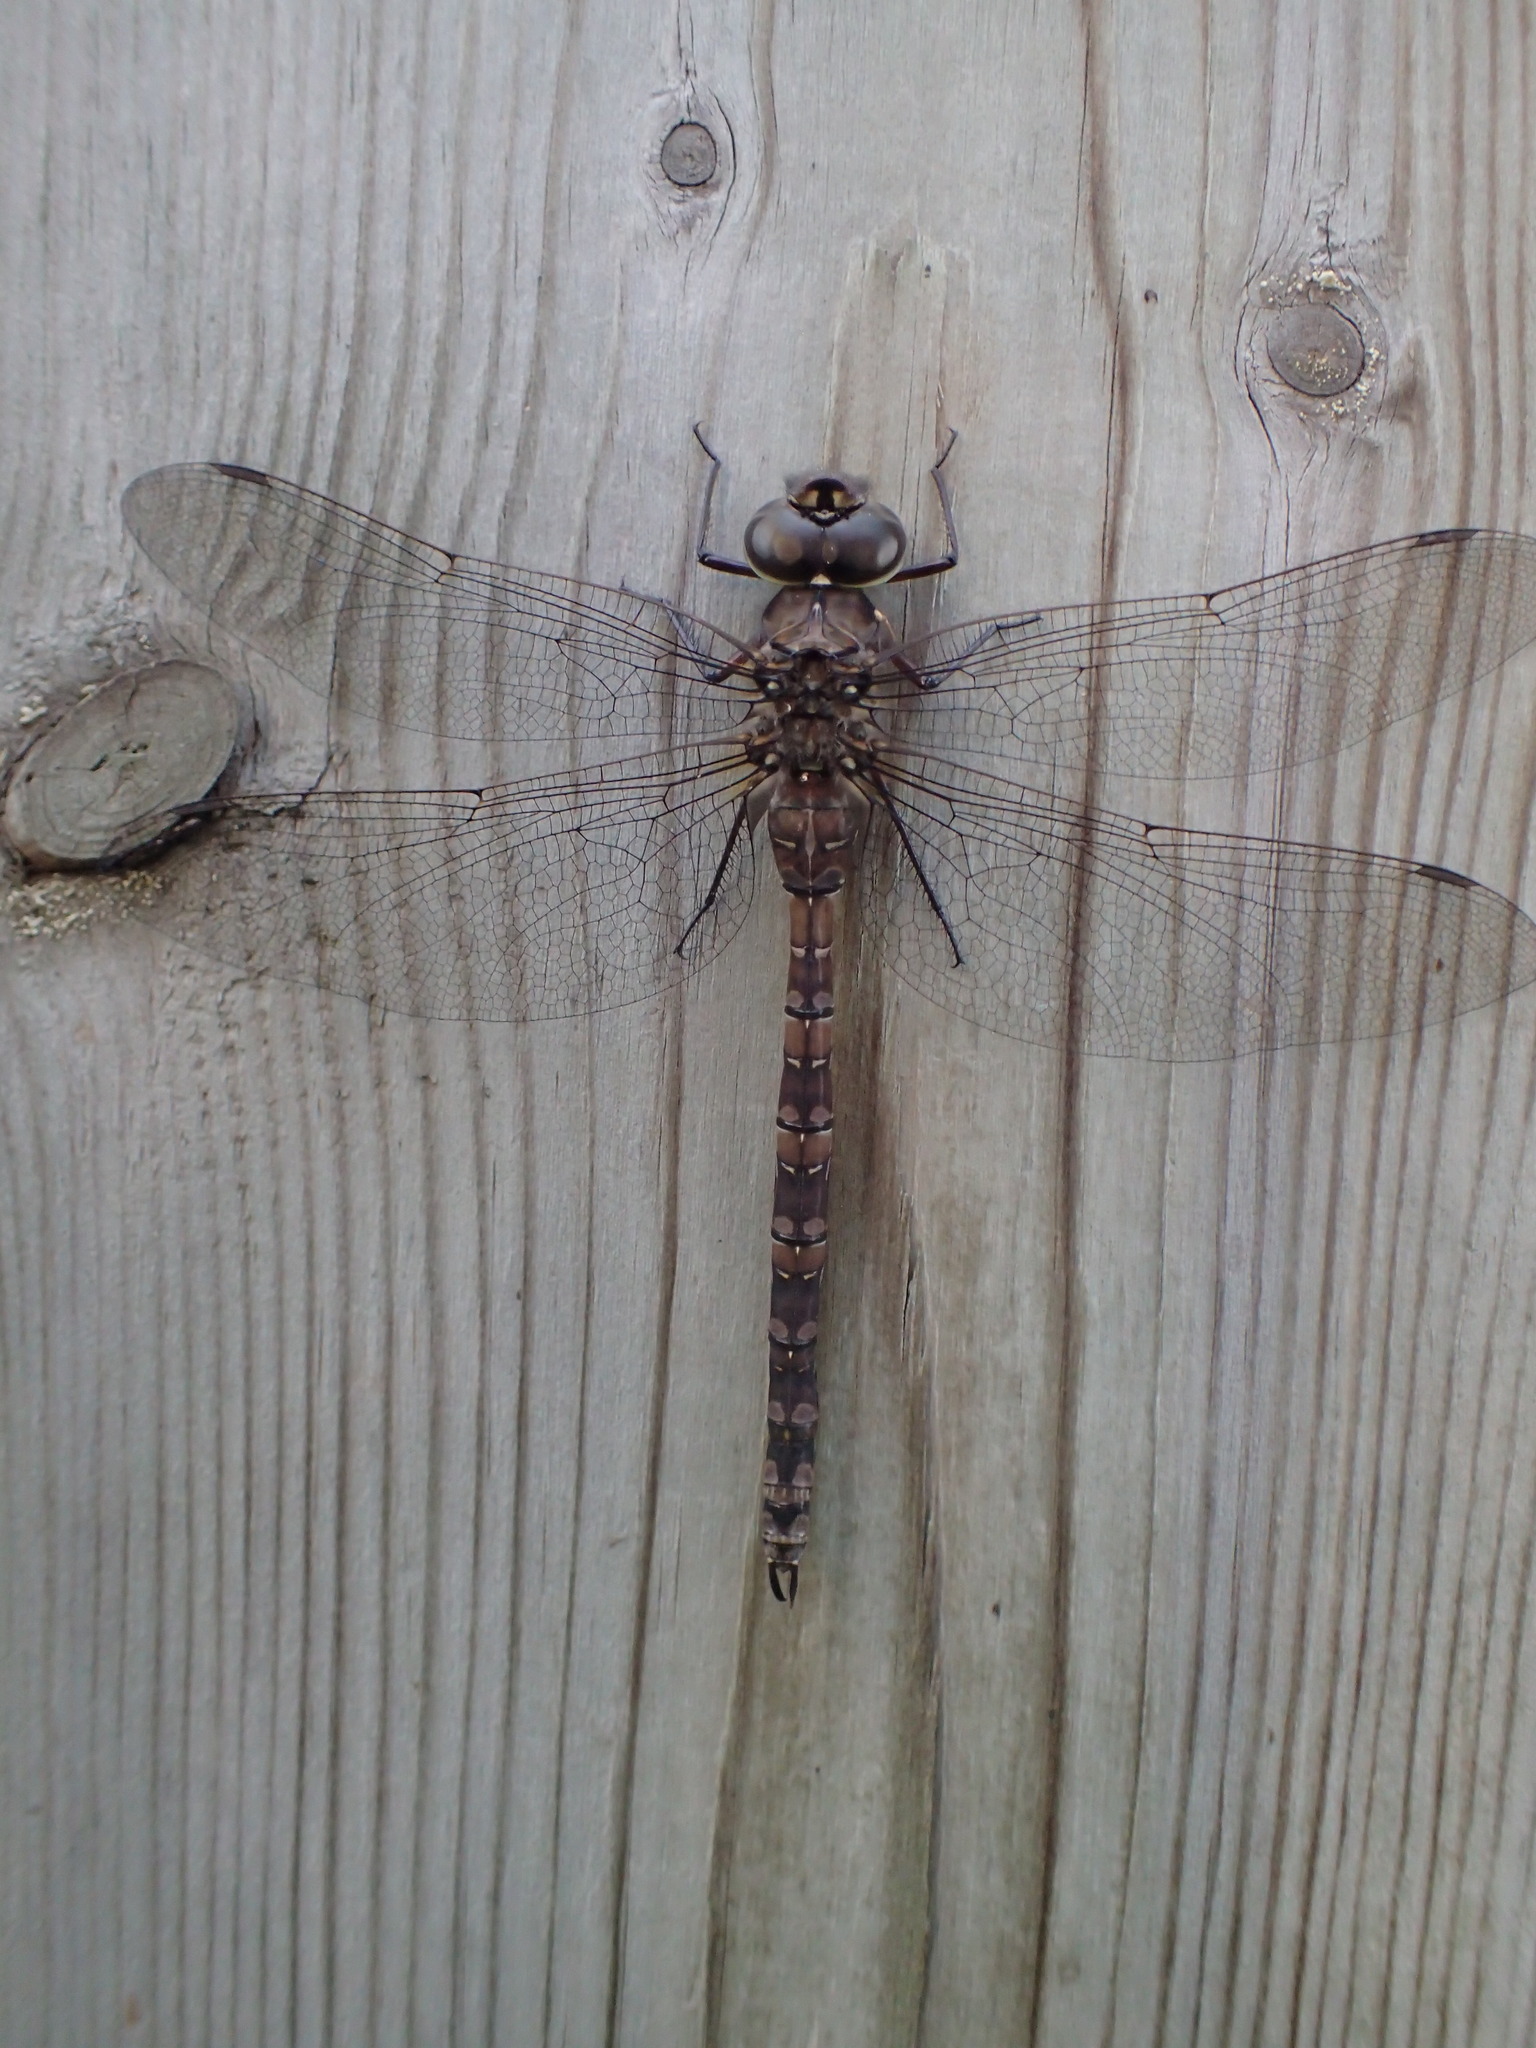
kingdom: Animalia
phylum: Arthropoda
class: Insecta
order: Odonata
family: Aeshnidae
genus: Aeshna
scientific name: Aeshna canadensis
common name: Canada darner
